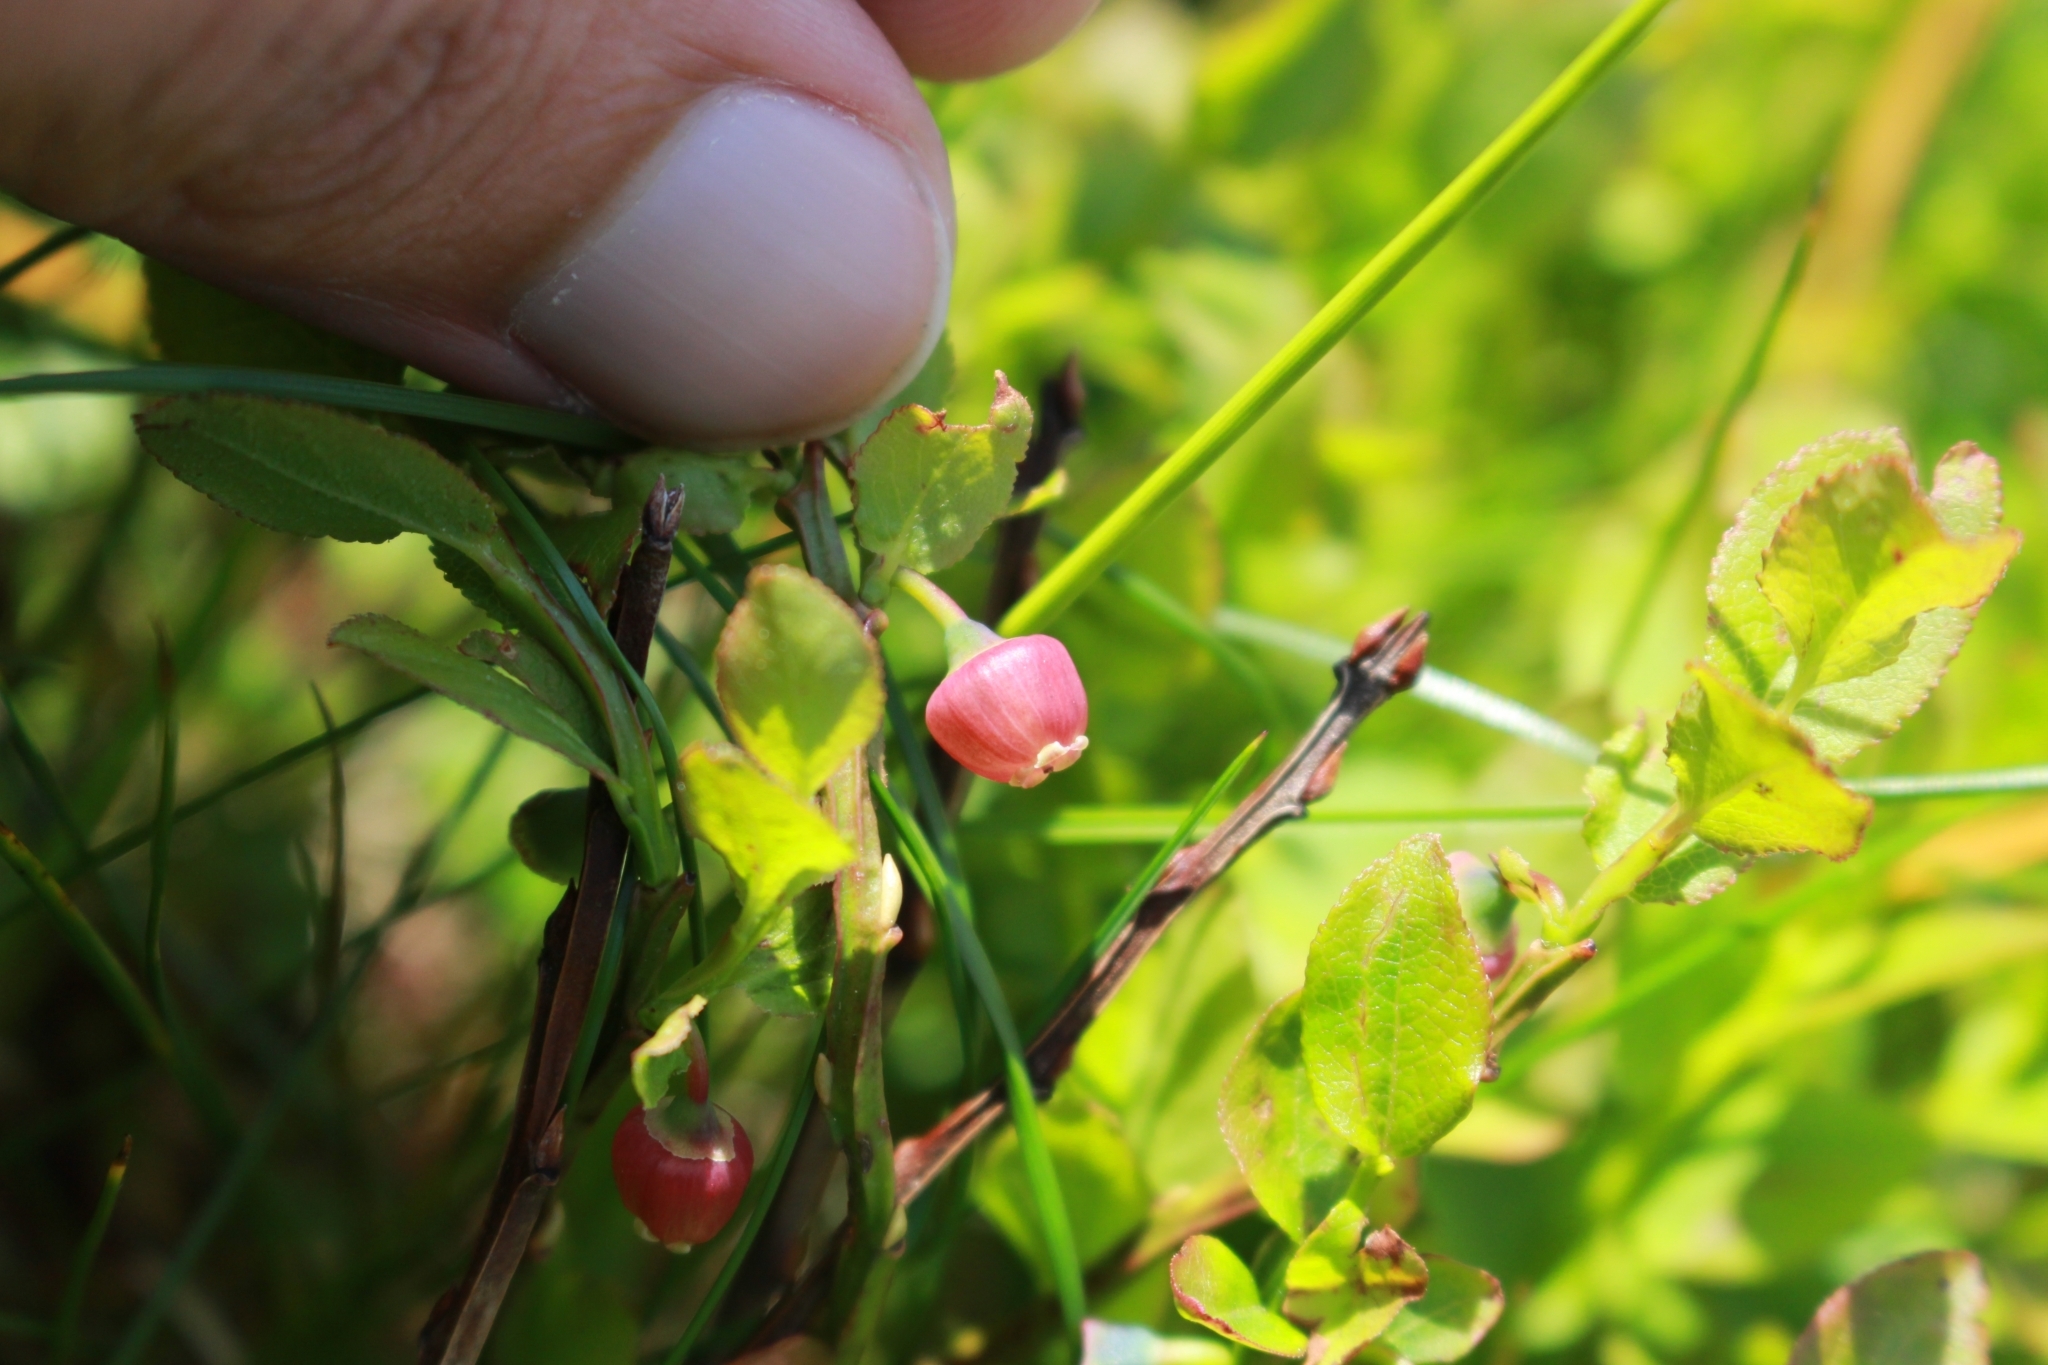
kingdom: Plantae
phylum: Tracheophyta
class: Magnoliopsida
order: Ericales
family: Ericaceae
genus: Vaccinium
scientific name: Vaccinium myrtillus
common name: Bilberry
